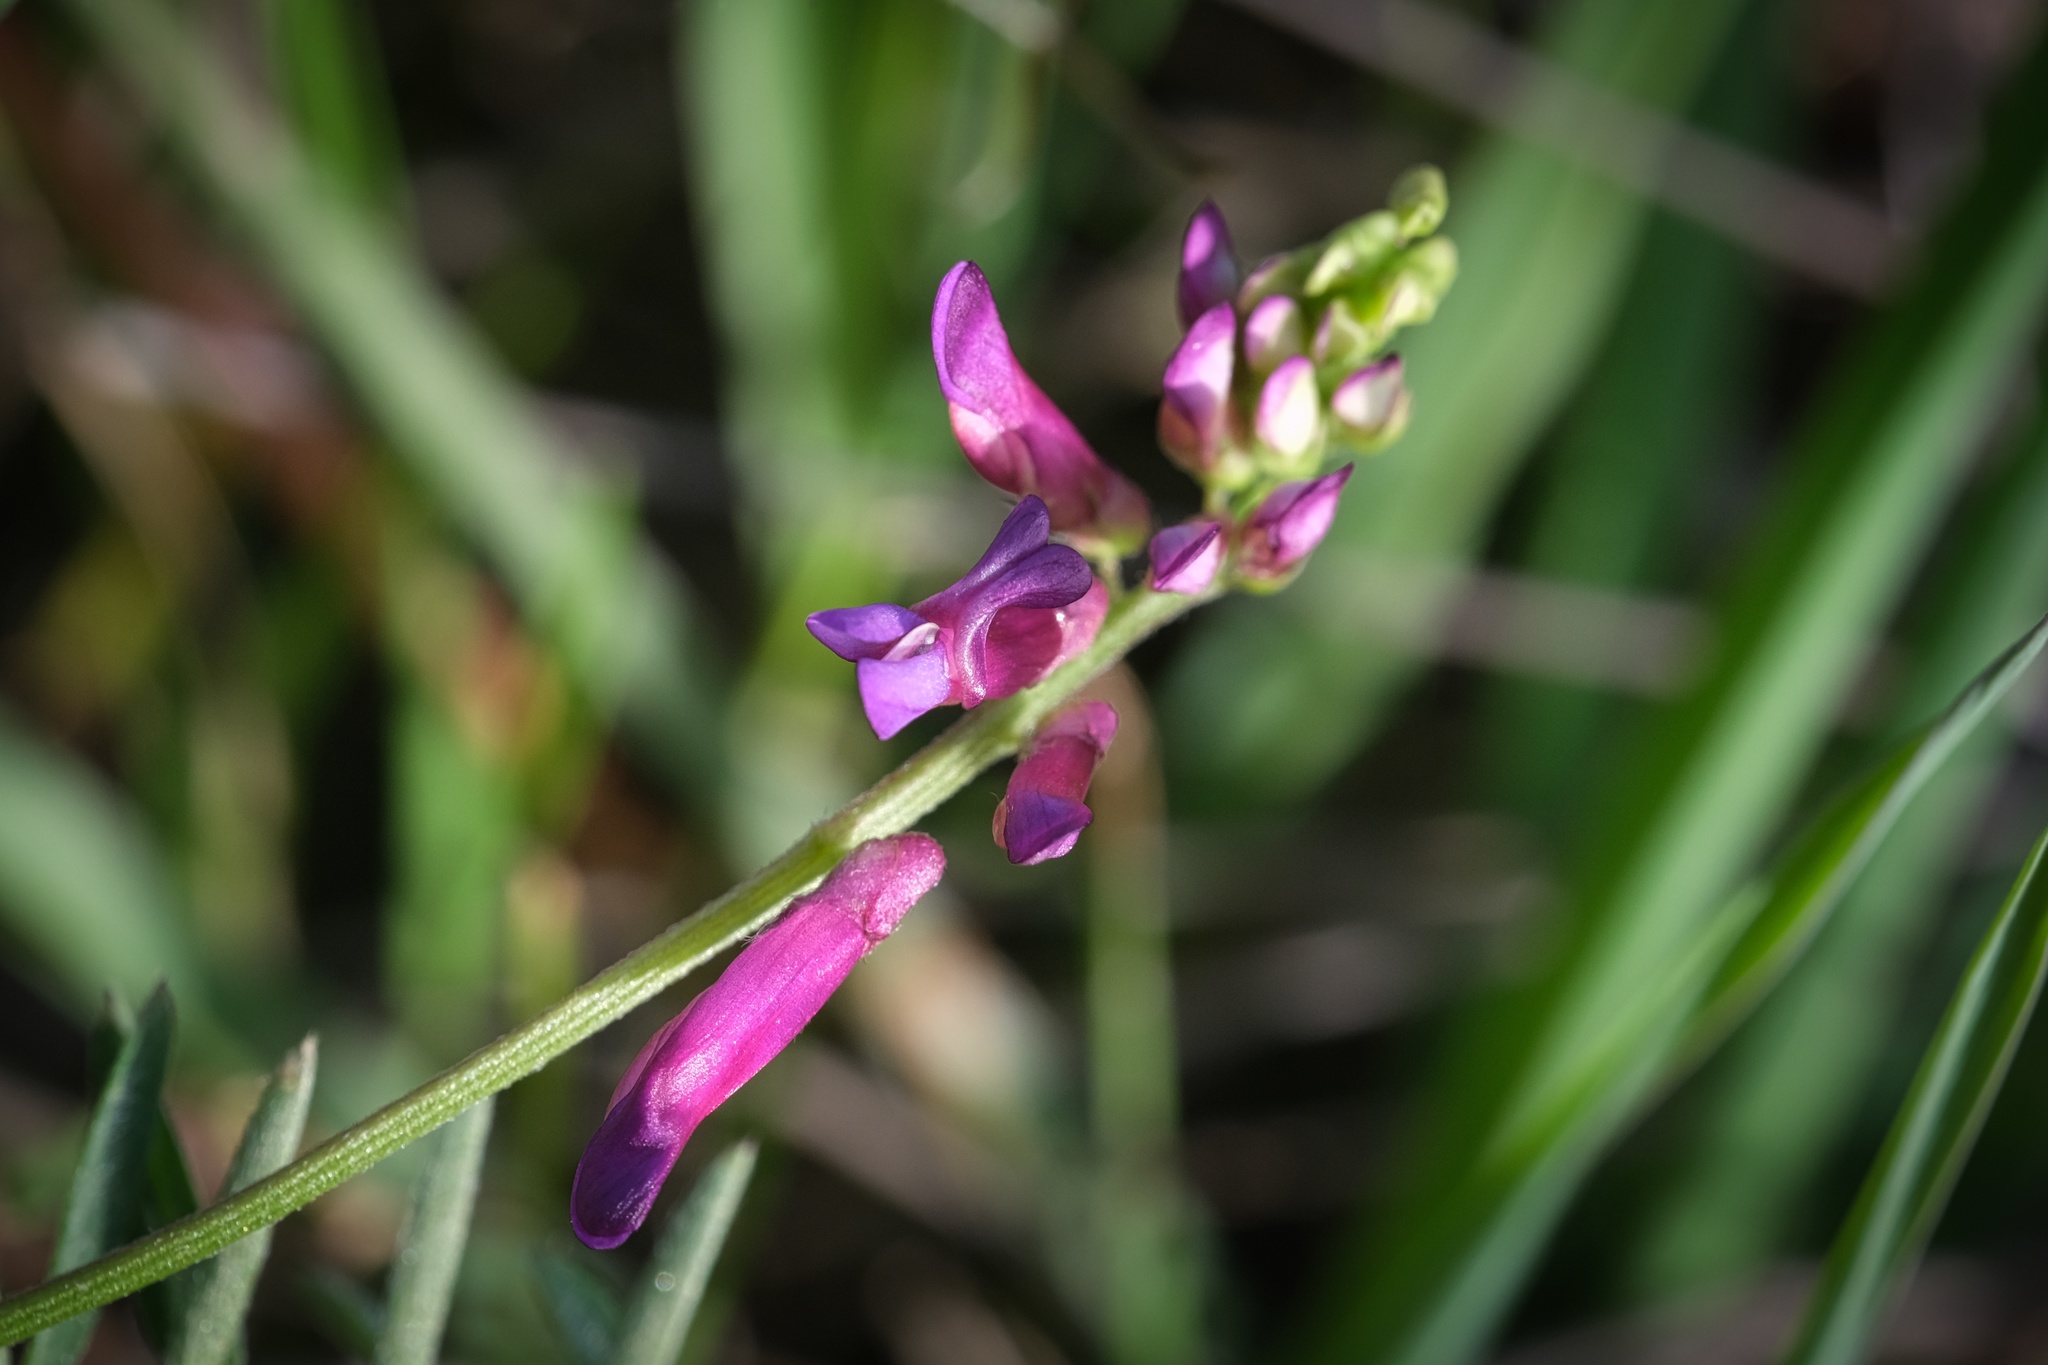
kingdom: Plantae
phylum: Tracheophyta
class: Magnoliopsida
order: Fabales
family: Fabaceae
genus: Vicia
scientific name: Vicia villosa
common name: Fodder vetch
